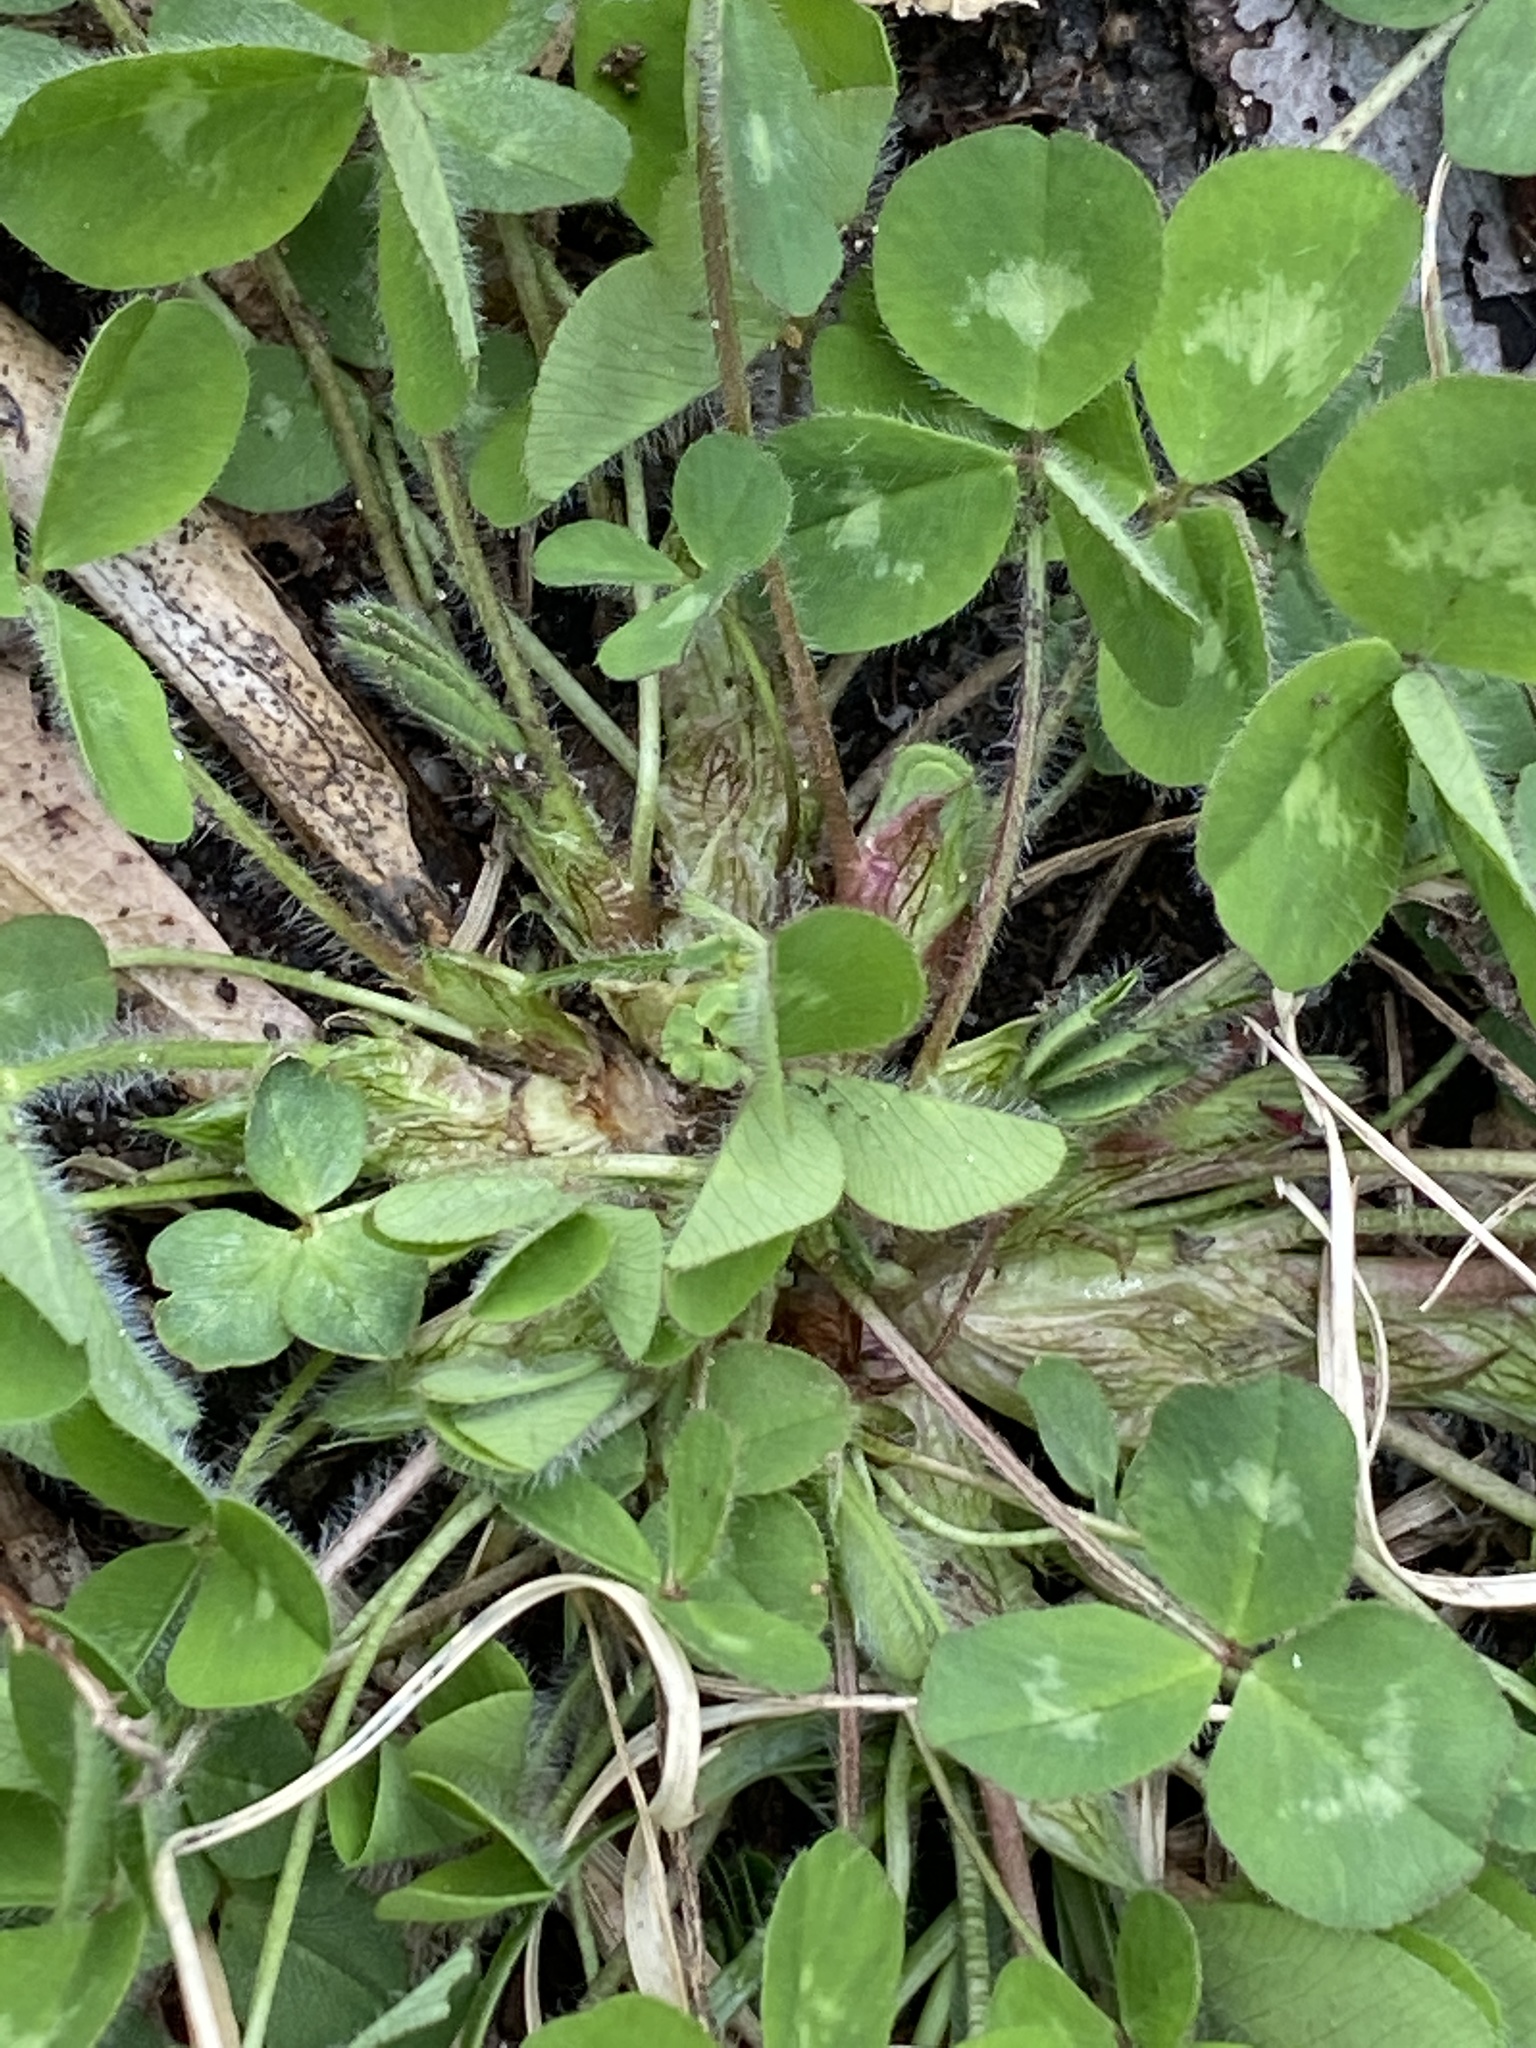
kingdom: Plantae
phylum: Tracheophyta
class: Magnoliopsida
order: Fabales
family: Fabaceae
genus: Trifolium
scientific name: Trifolium pratense
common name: Red clover
